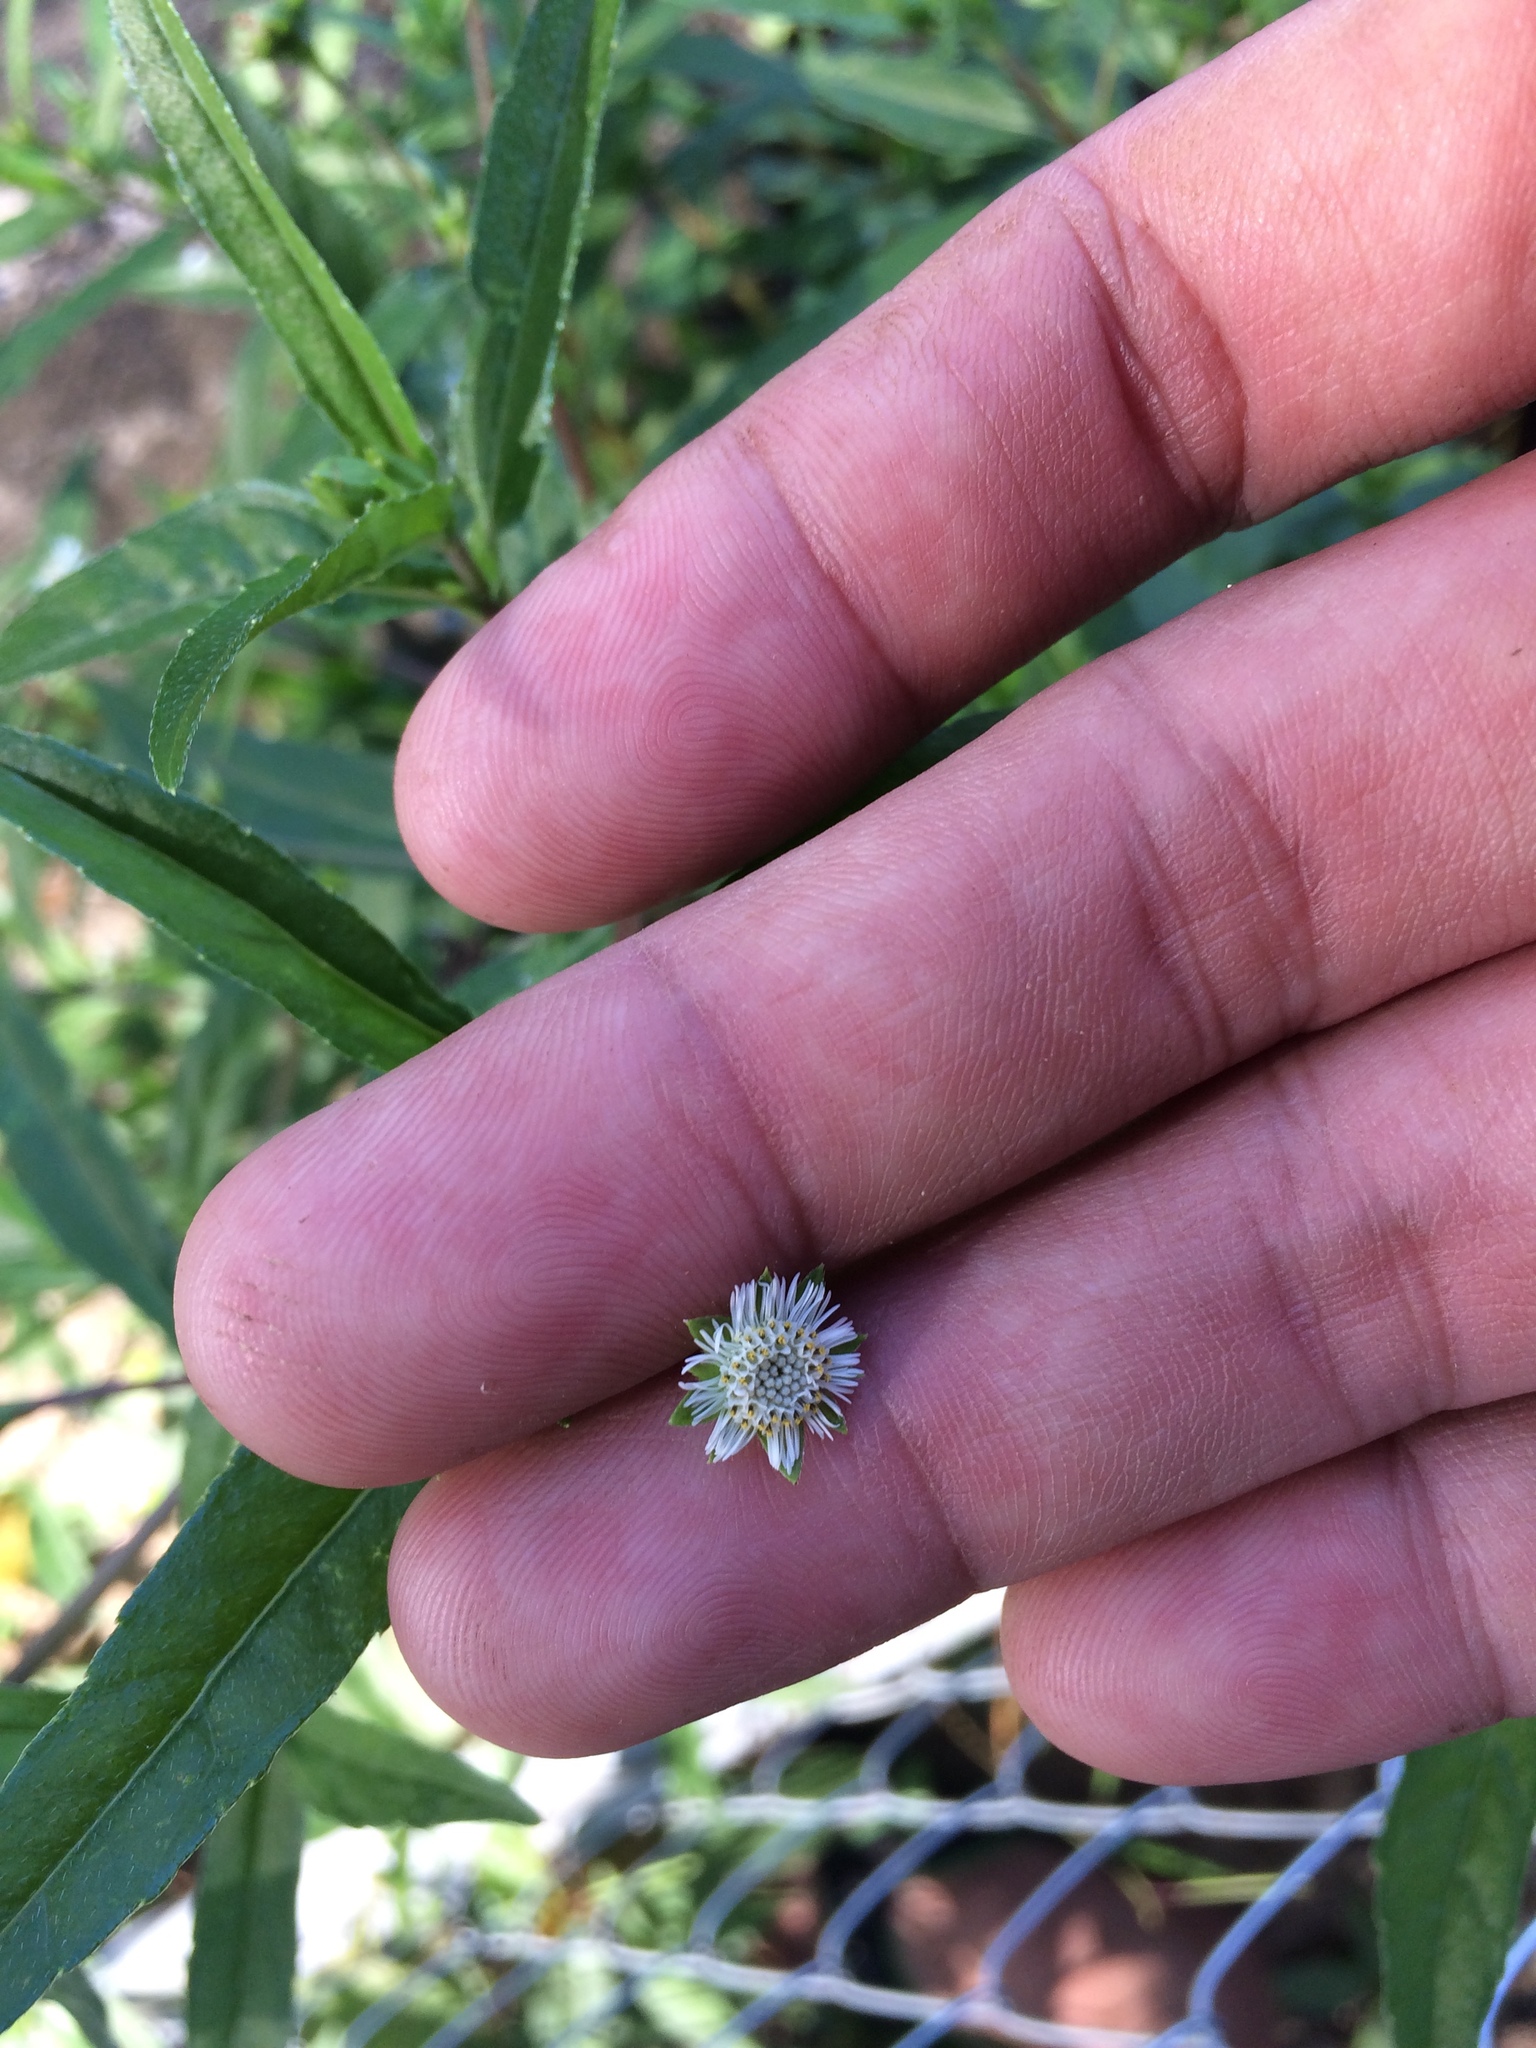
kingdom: Plantae
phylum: Tracheophyta
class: Magnoliopsida
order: Asterales
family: Asteraceae
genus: Eclipta
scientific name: Eclipta prostrata
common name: False daisy
